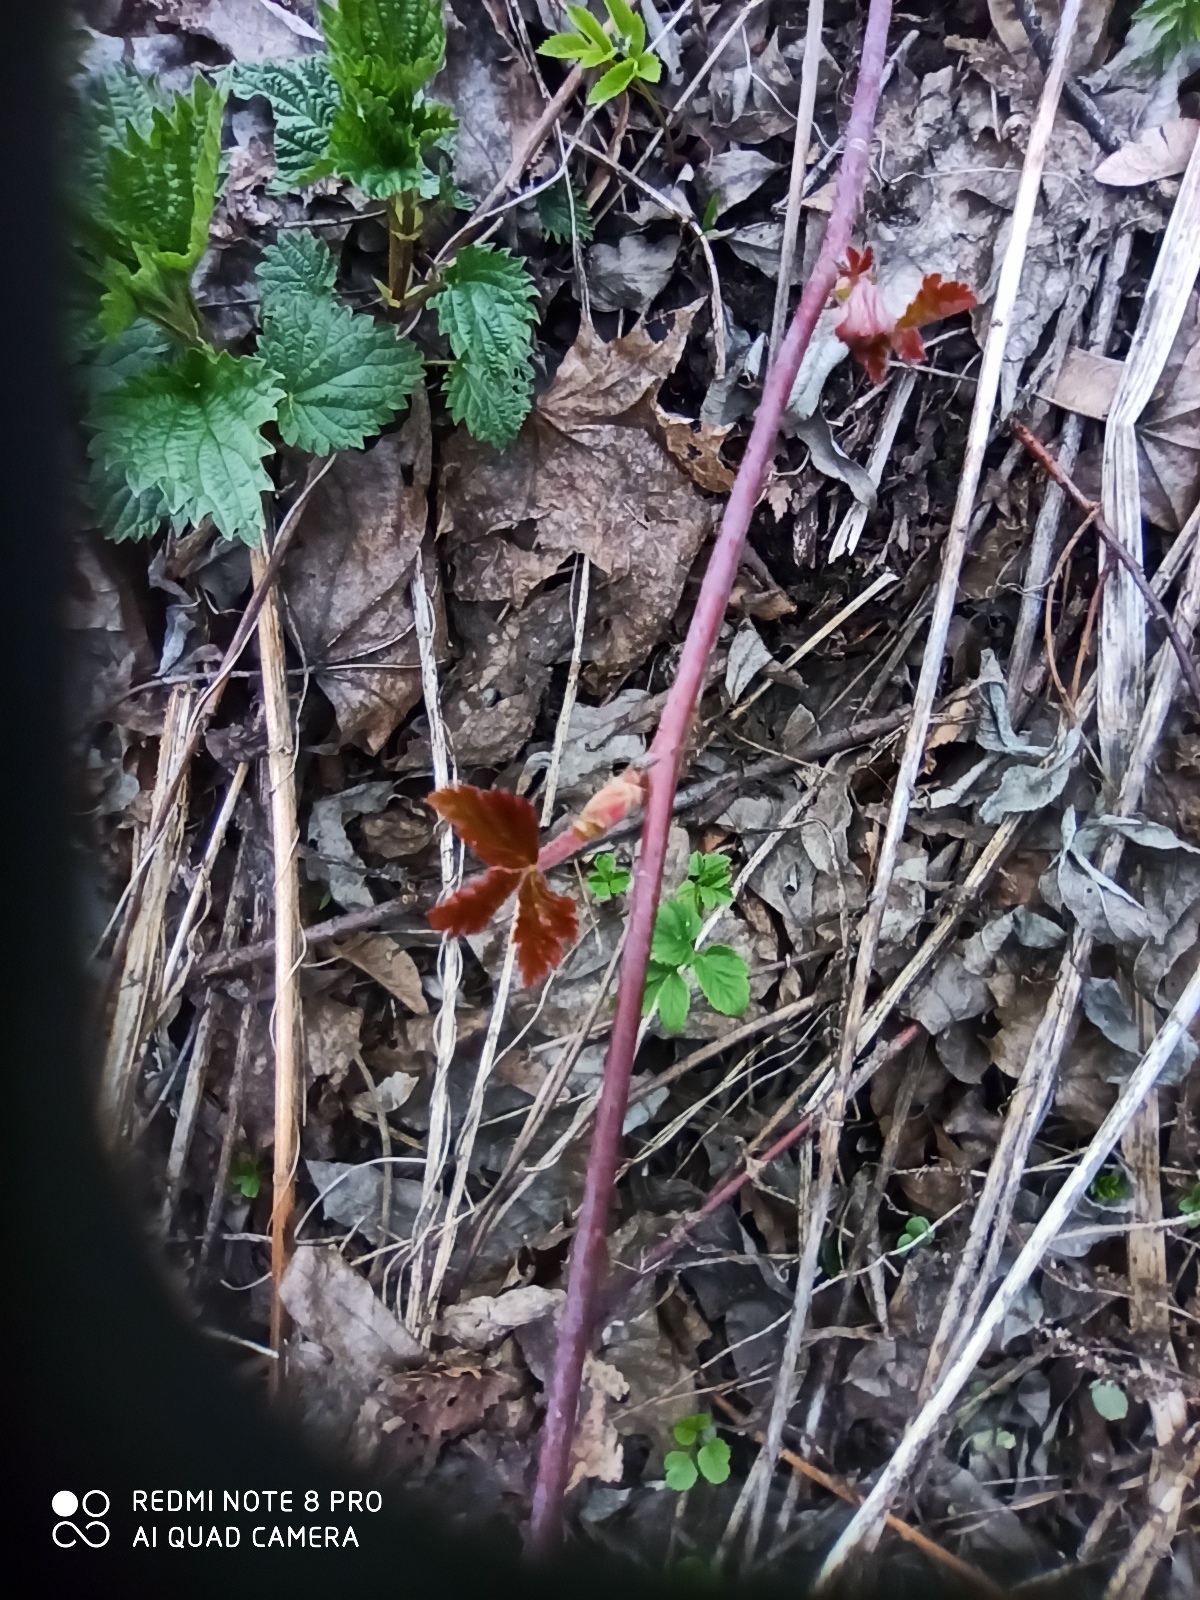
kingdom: Plantae
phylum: Tracheophyta
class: Magnoliopsida
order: Rosales
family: Rosaceae
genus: Rubus
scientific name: Rubus caesius
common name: Dewberry
